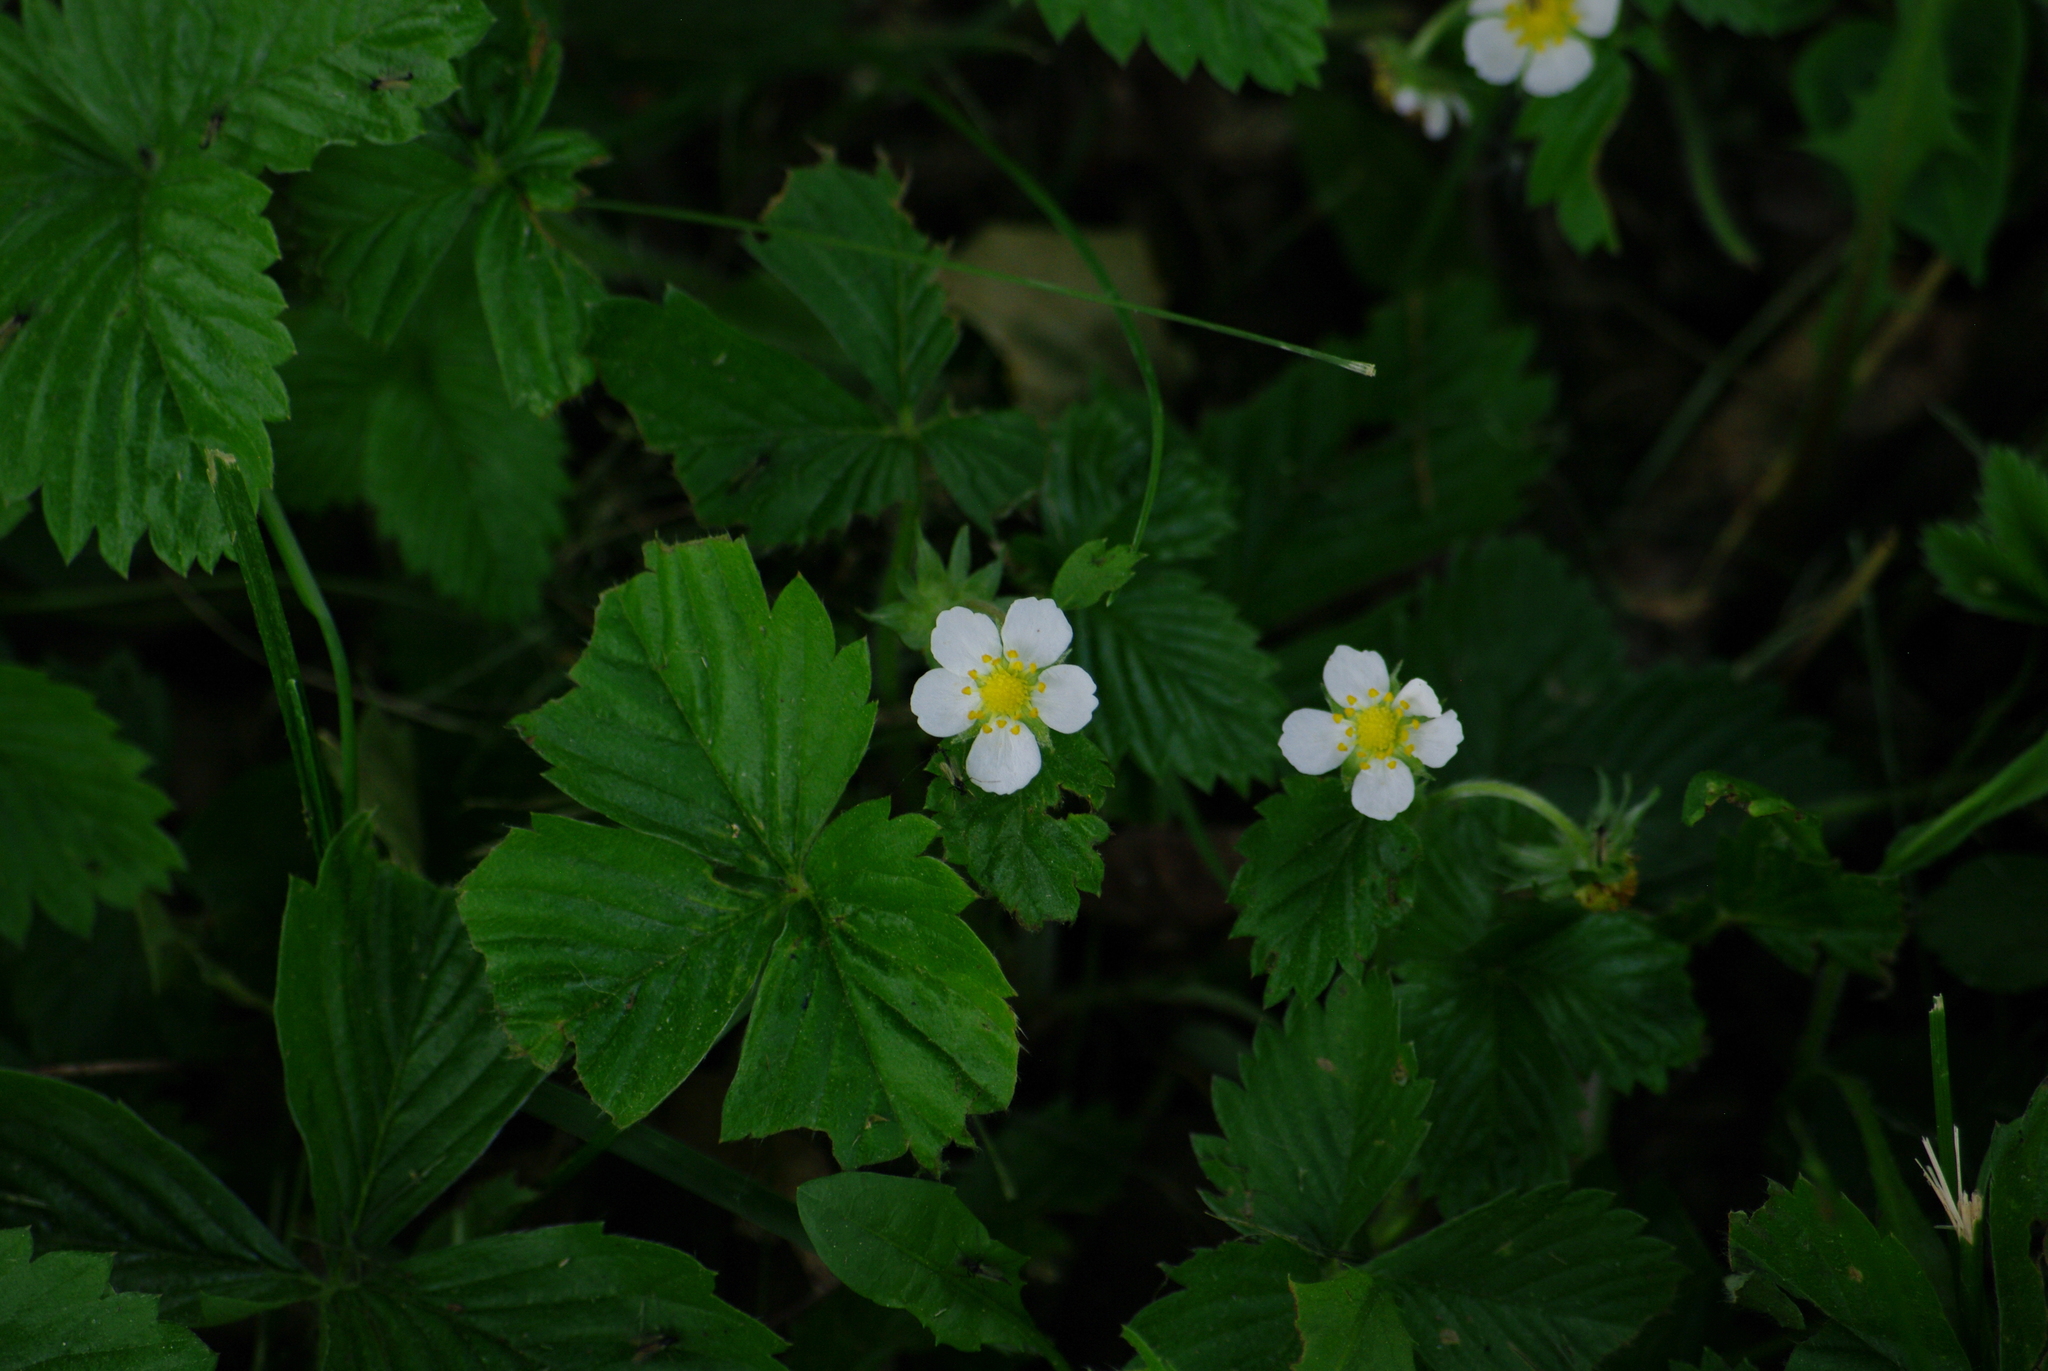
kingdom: Plantae
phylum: Tracheophyta
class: Magnoliopsida
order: Rosales
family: Rosaceae
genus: Fragaria
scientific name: Fragaria vesca
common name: Wild strawberry
